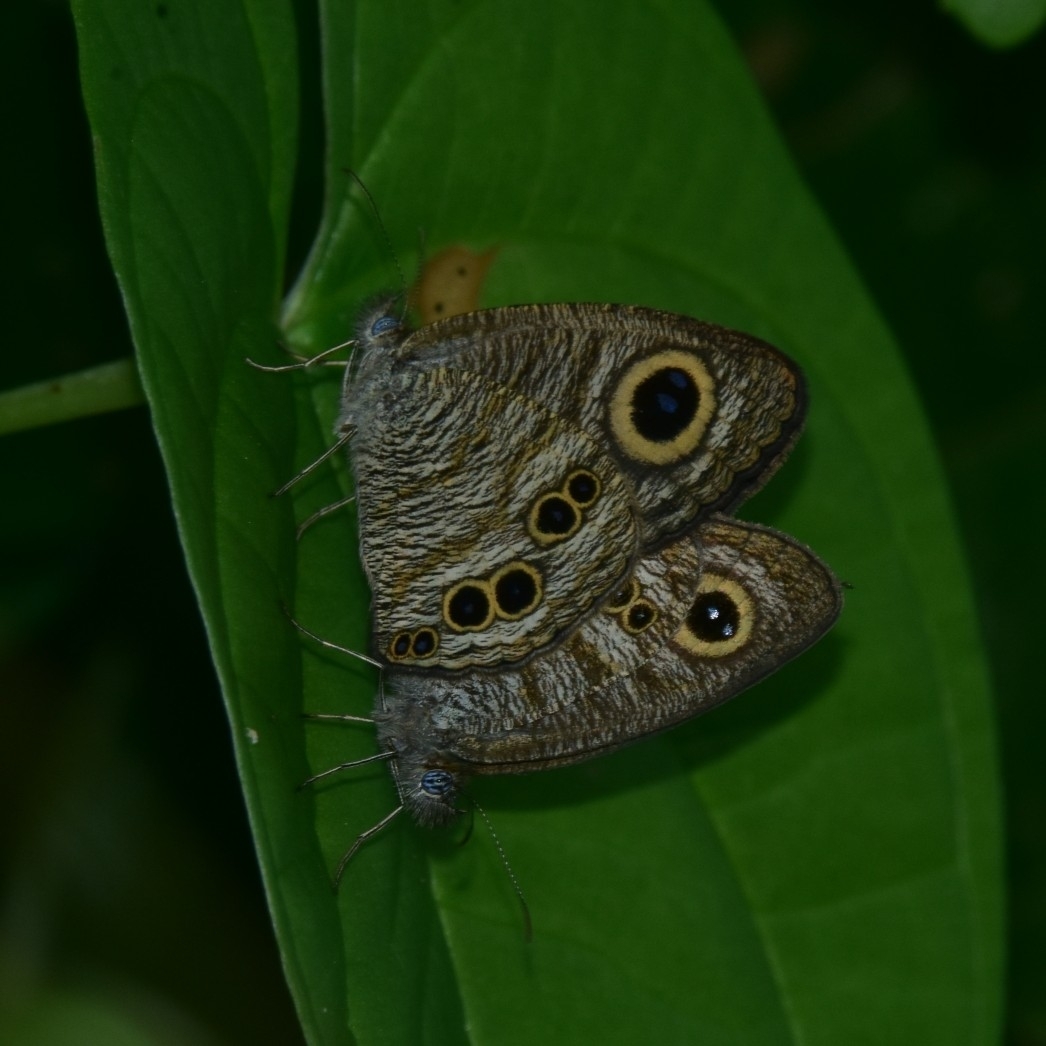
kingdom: Animalia
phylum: Arthropoda
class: Insecta
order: Lepidoptera
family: Nymphalidae
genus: Ypthima
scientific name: Ypthima baldus
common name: Common five-ring
